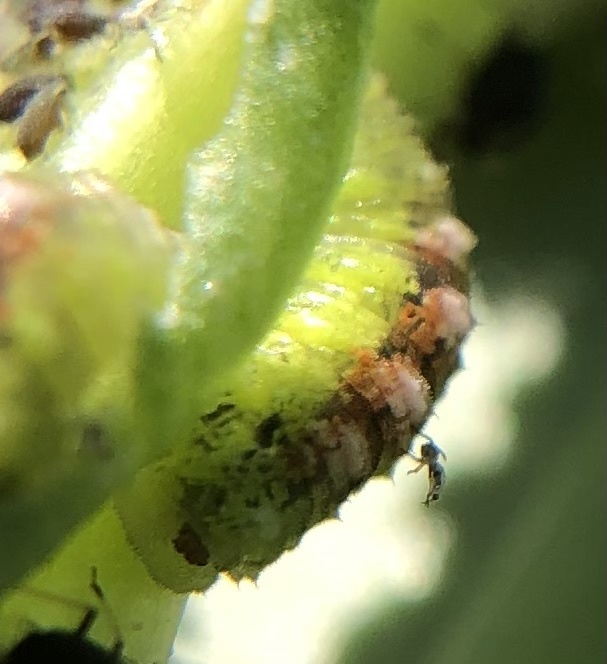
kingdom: Animalia
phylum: Arthropoda
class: Insecta
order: Diptera
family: Syrphidae
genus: Eupeodes
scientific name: Eupeodes pomus
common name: Short-tailed aphideater
